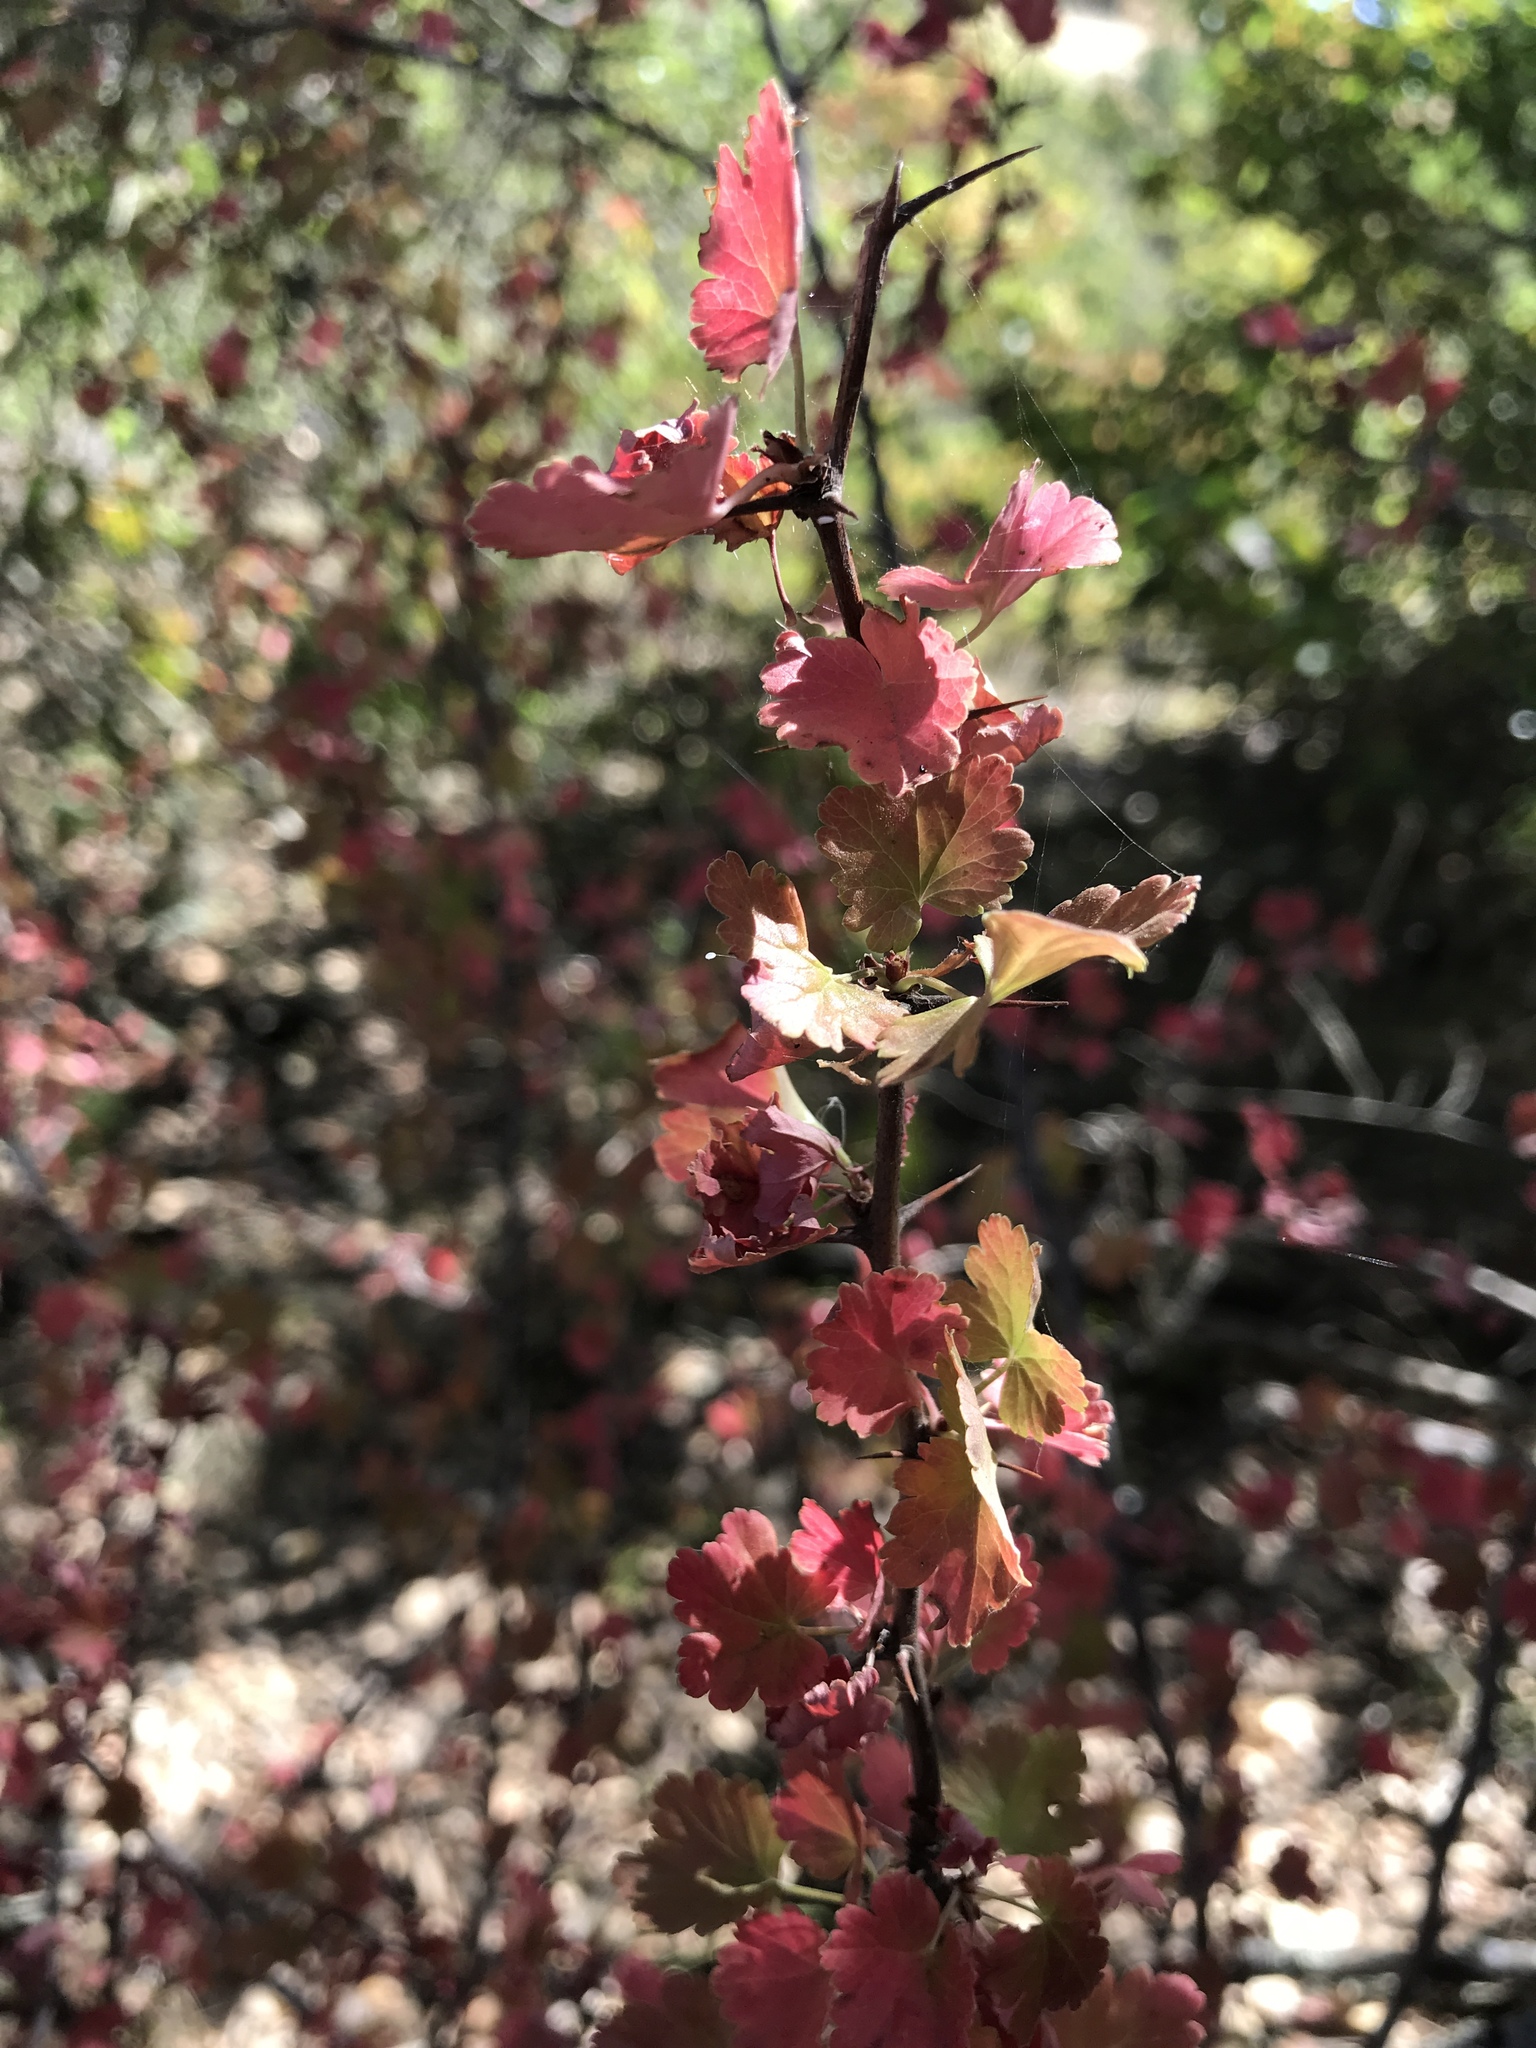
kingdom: Plantae
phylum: Tracheophyta
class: Magnoliopsida
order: Saxifragales
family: Grossulariaceae
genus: Ribes
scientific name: Ribes californicum
